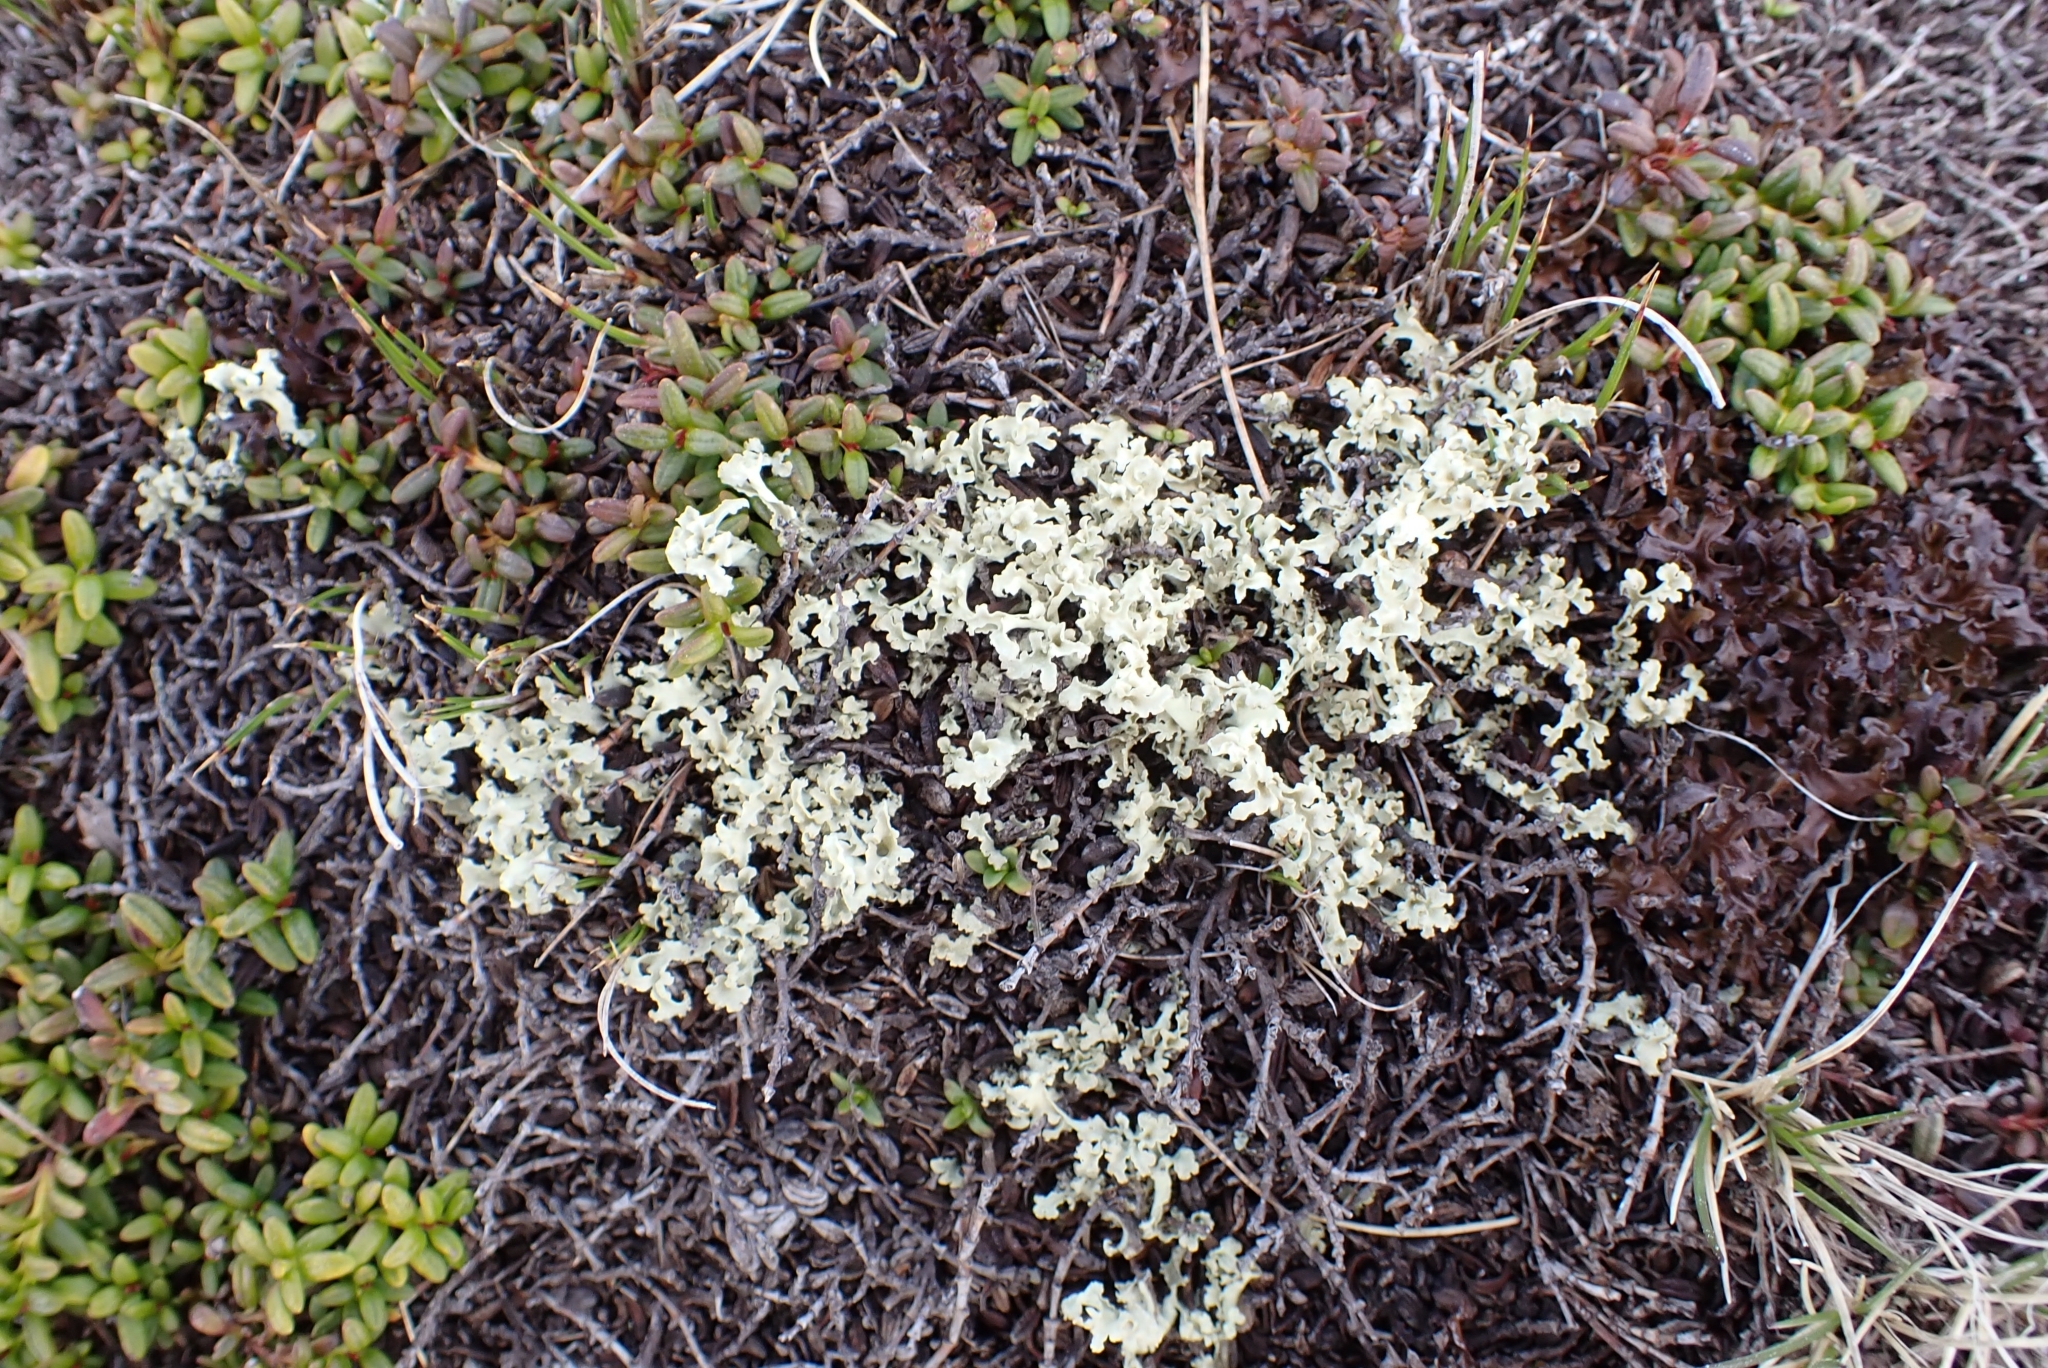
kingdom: Fungi
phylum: Ascomycota
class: Lecanoromycetes
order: Lecanorales
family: Parmeliaceae
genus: Nephromopsis
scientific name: Nephromopsis cucullata
